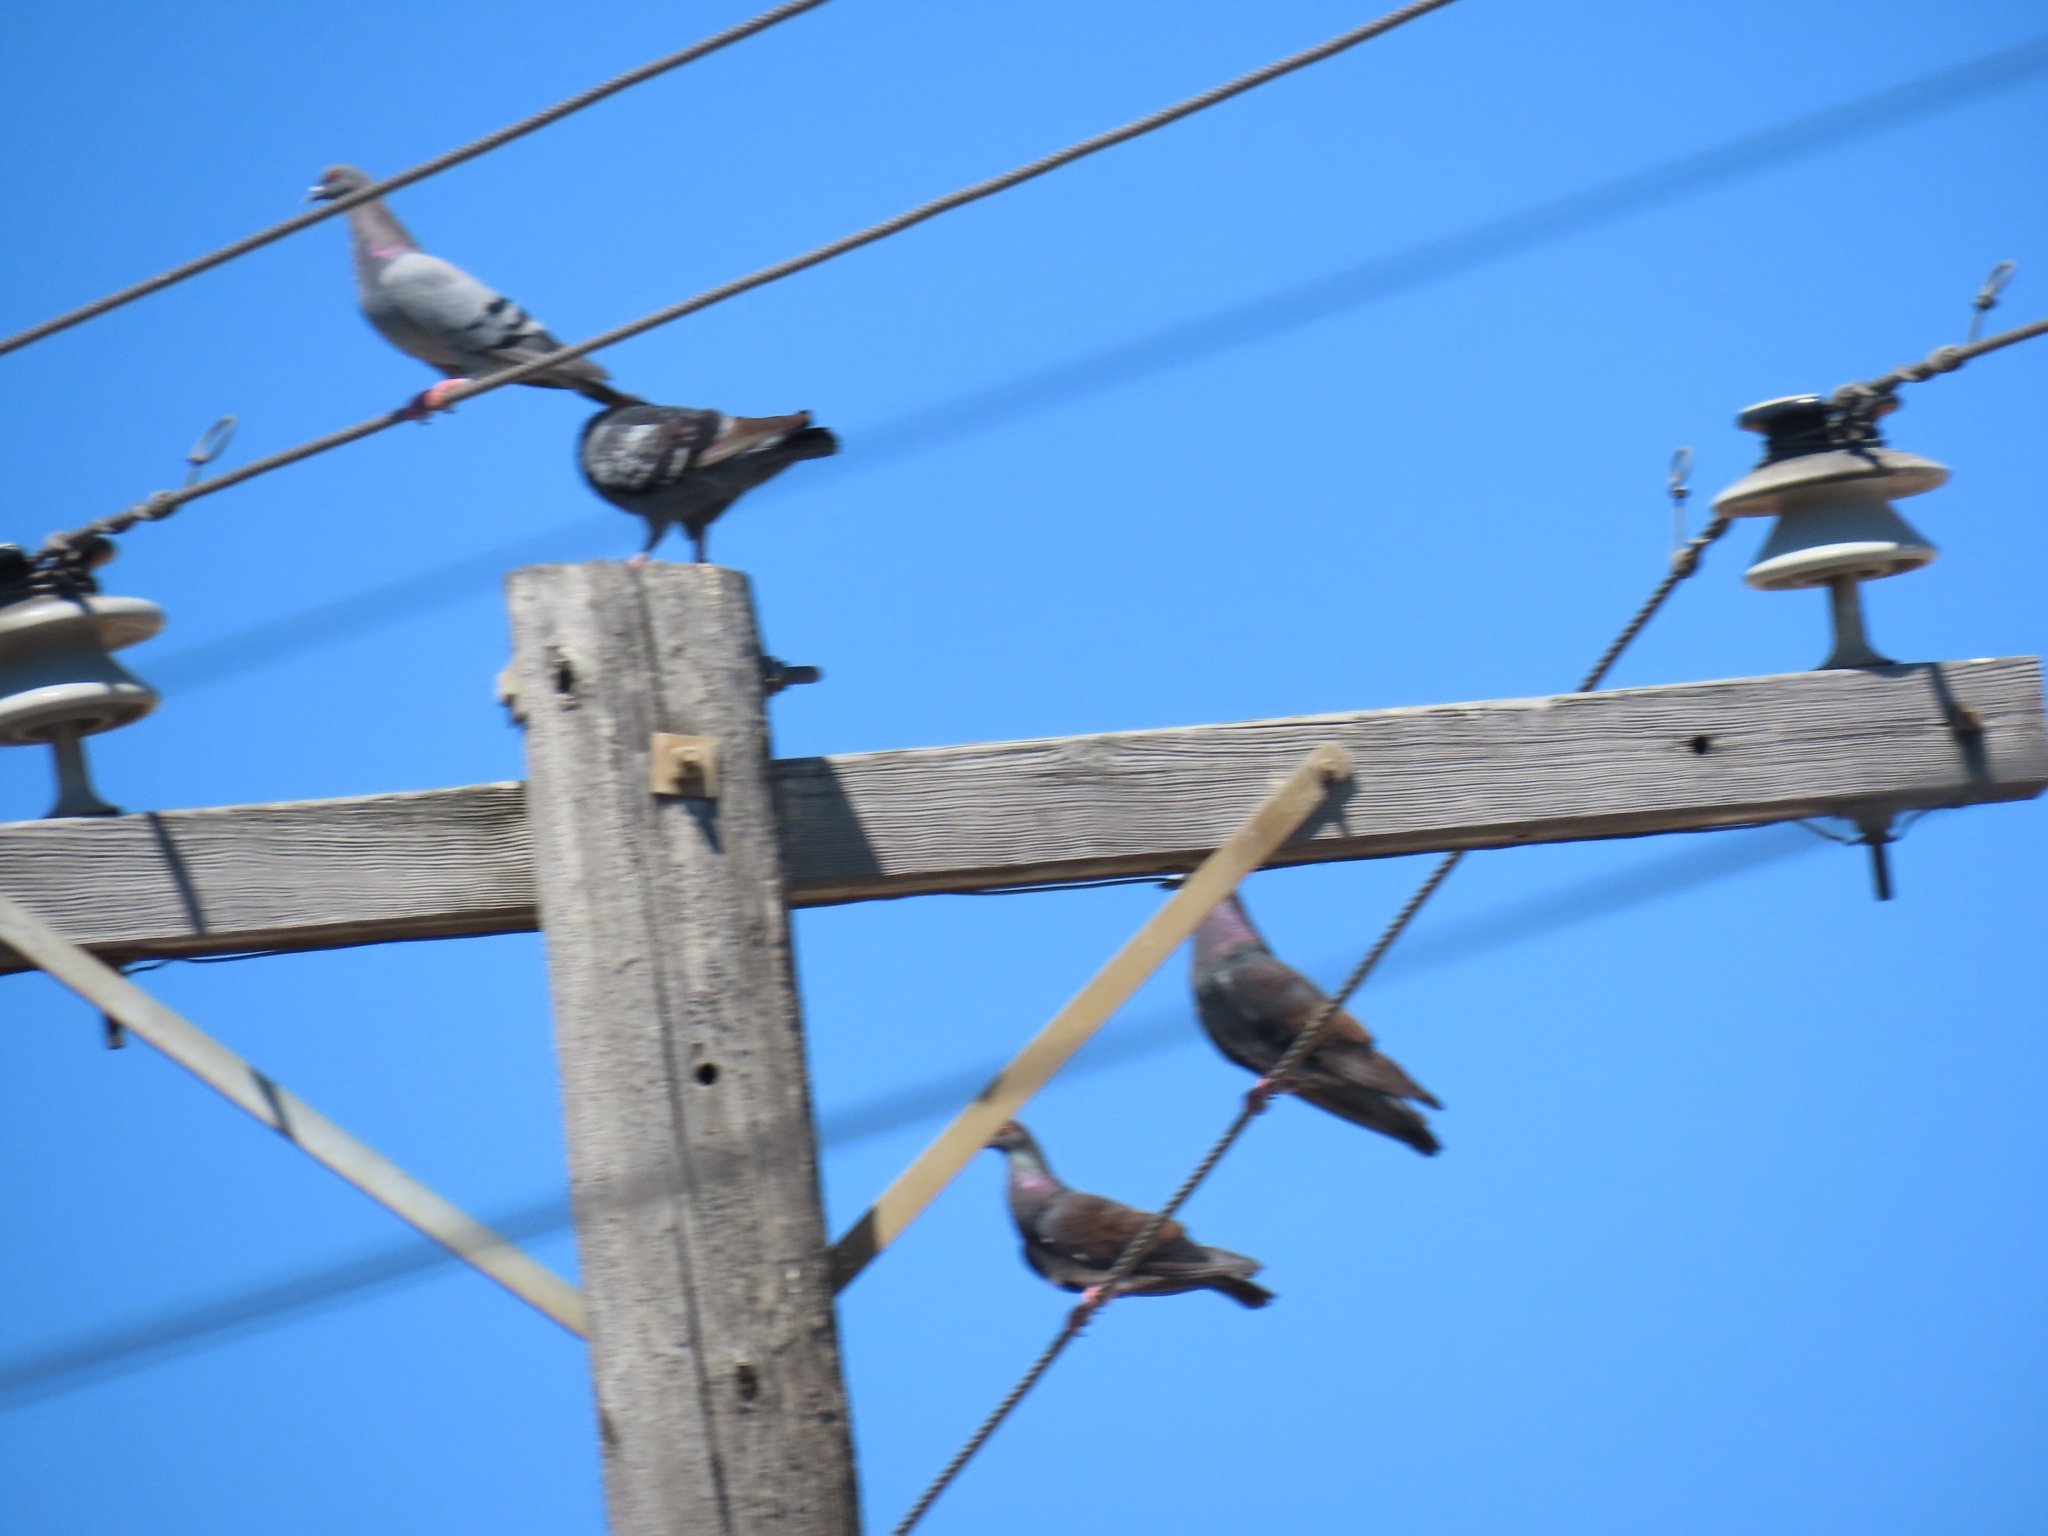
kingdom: Animalia
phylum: Chordata
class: Aves
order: Columbiformes
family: Columbidae
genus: Columba
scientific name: Columba livia
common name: Rock pigeon
